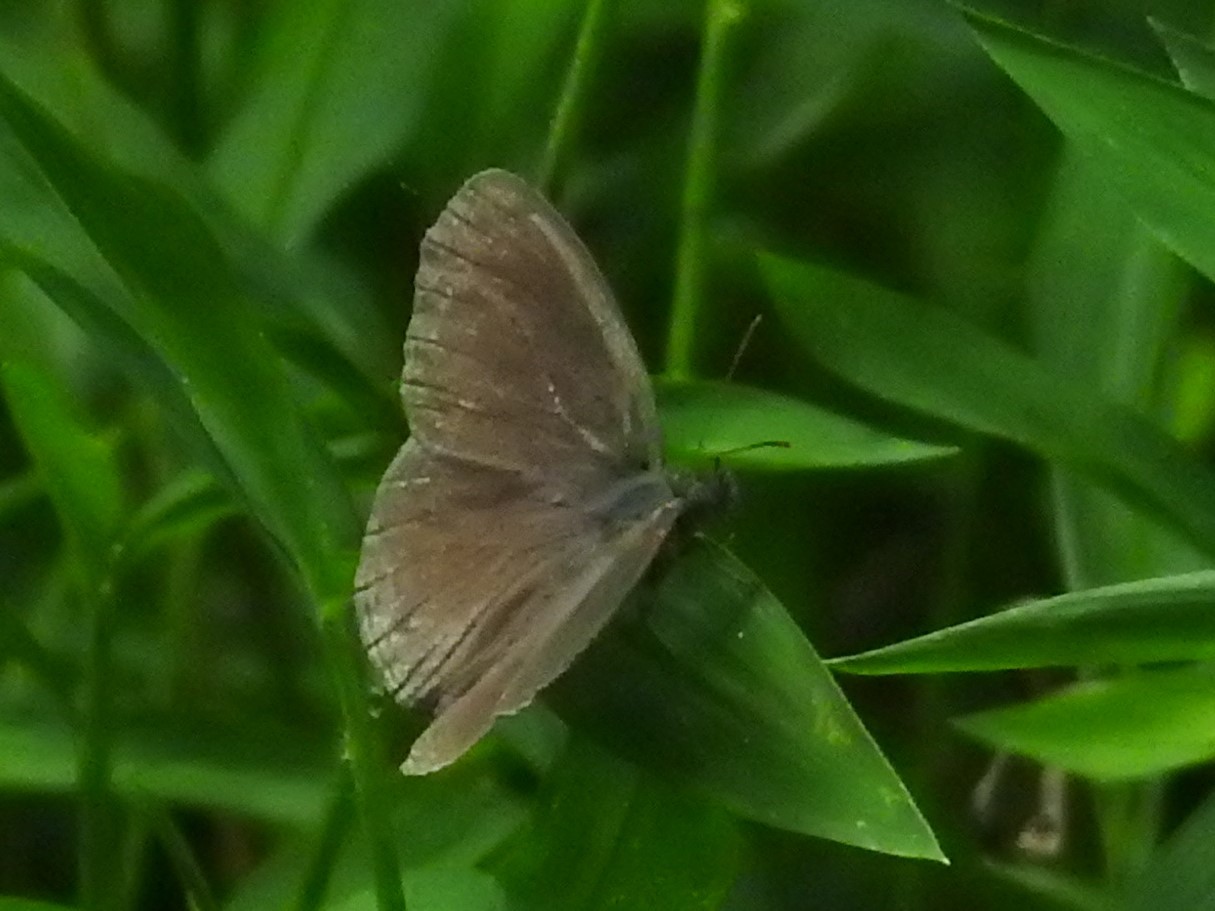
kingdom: Animalia
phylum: Arthropoda
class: Insecta
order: Lepidoptera
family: Nymphalidae
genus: Hermeuptychia
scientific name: Hermeuptychia hermes
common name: Hermes satyr
